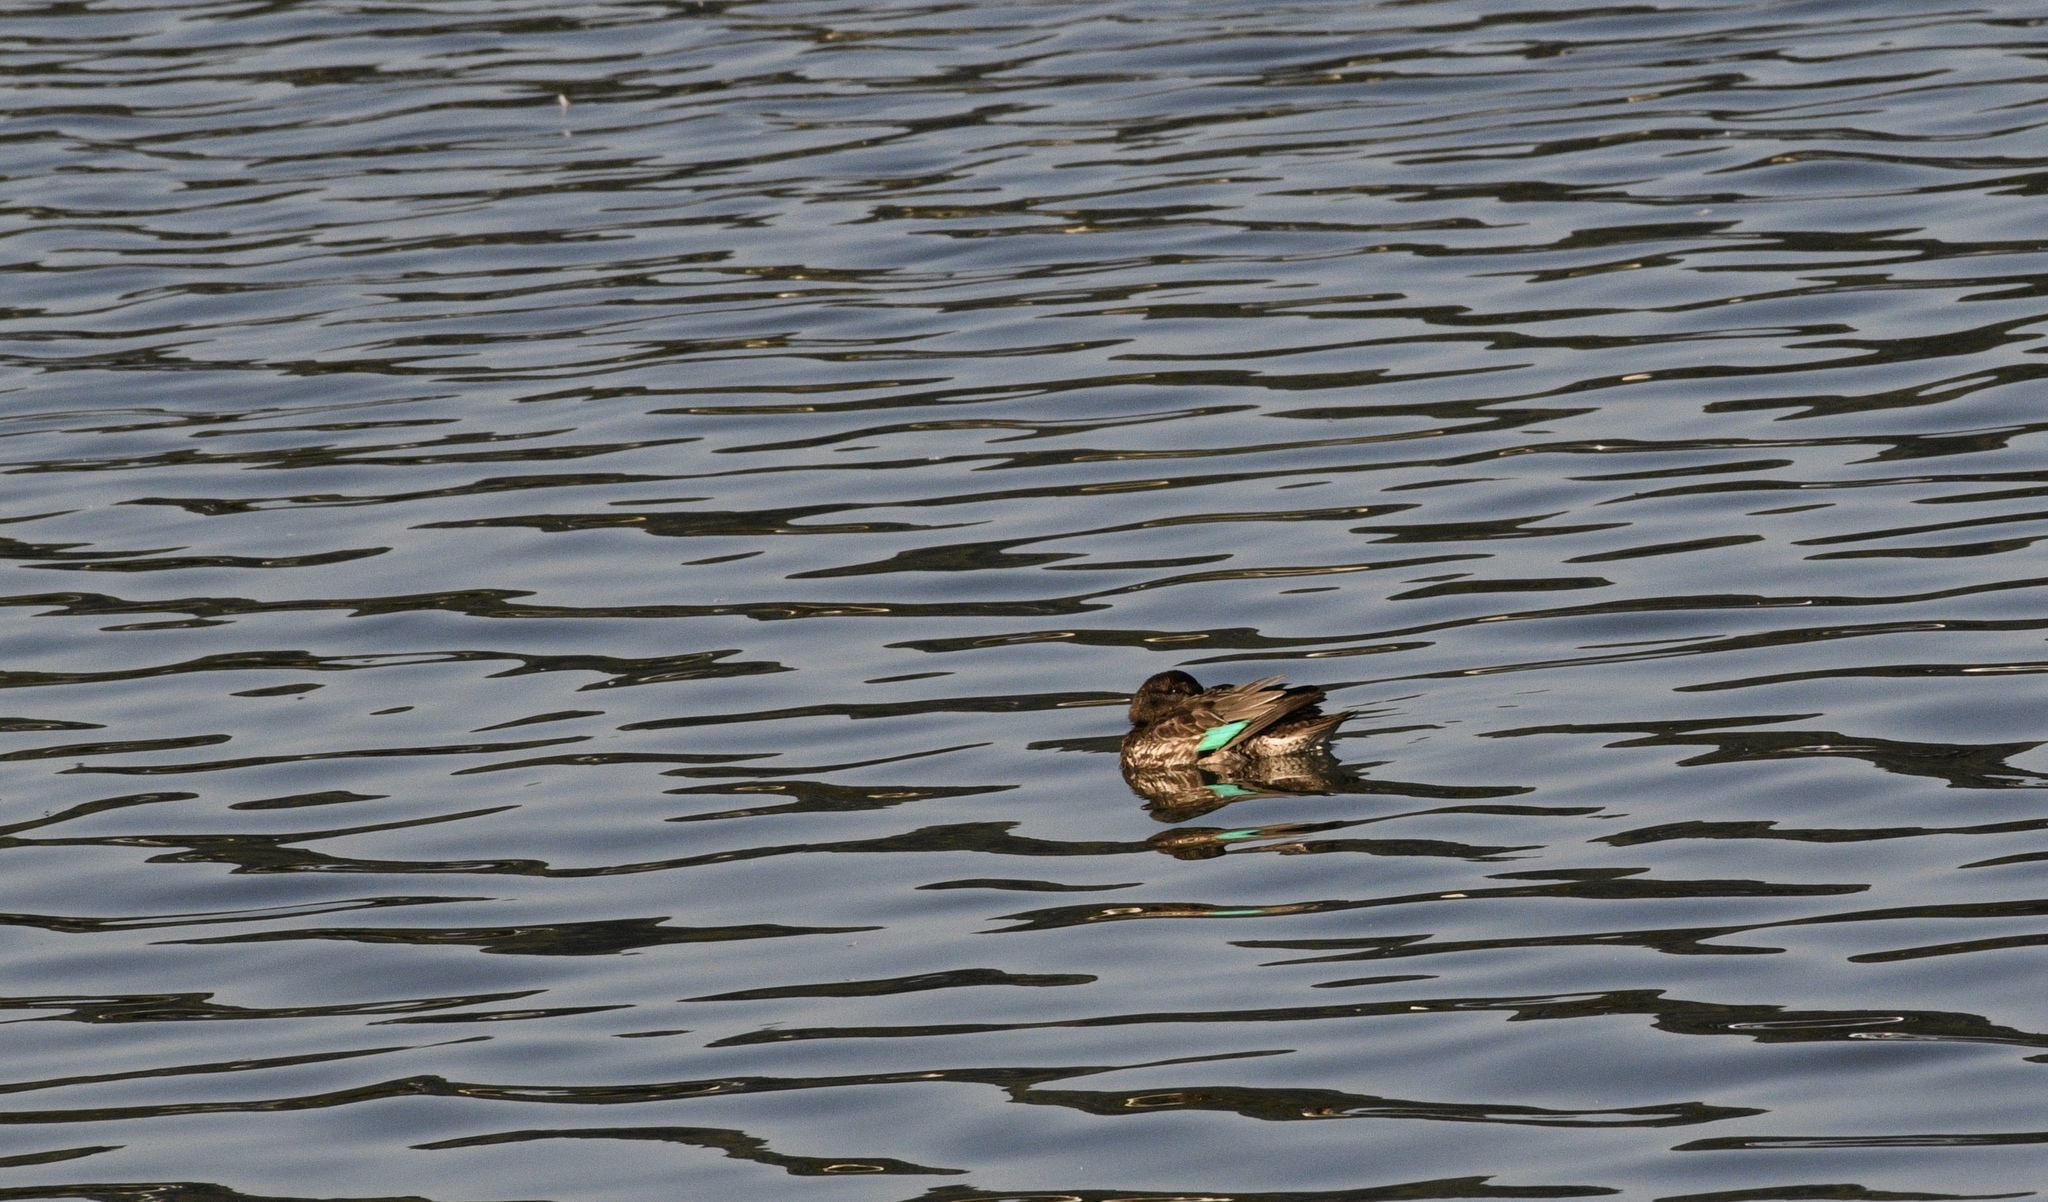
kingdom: Animalia
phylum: Chordata
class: Aves
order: Anseriformes
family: Anatidae
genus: Anas
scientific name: Anas crecca
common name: Eurasian teal
